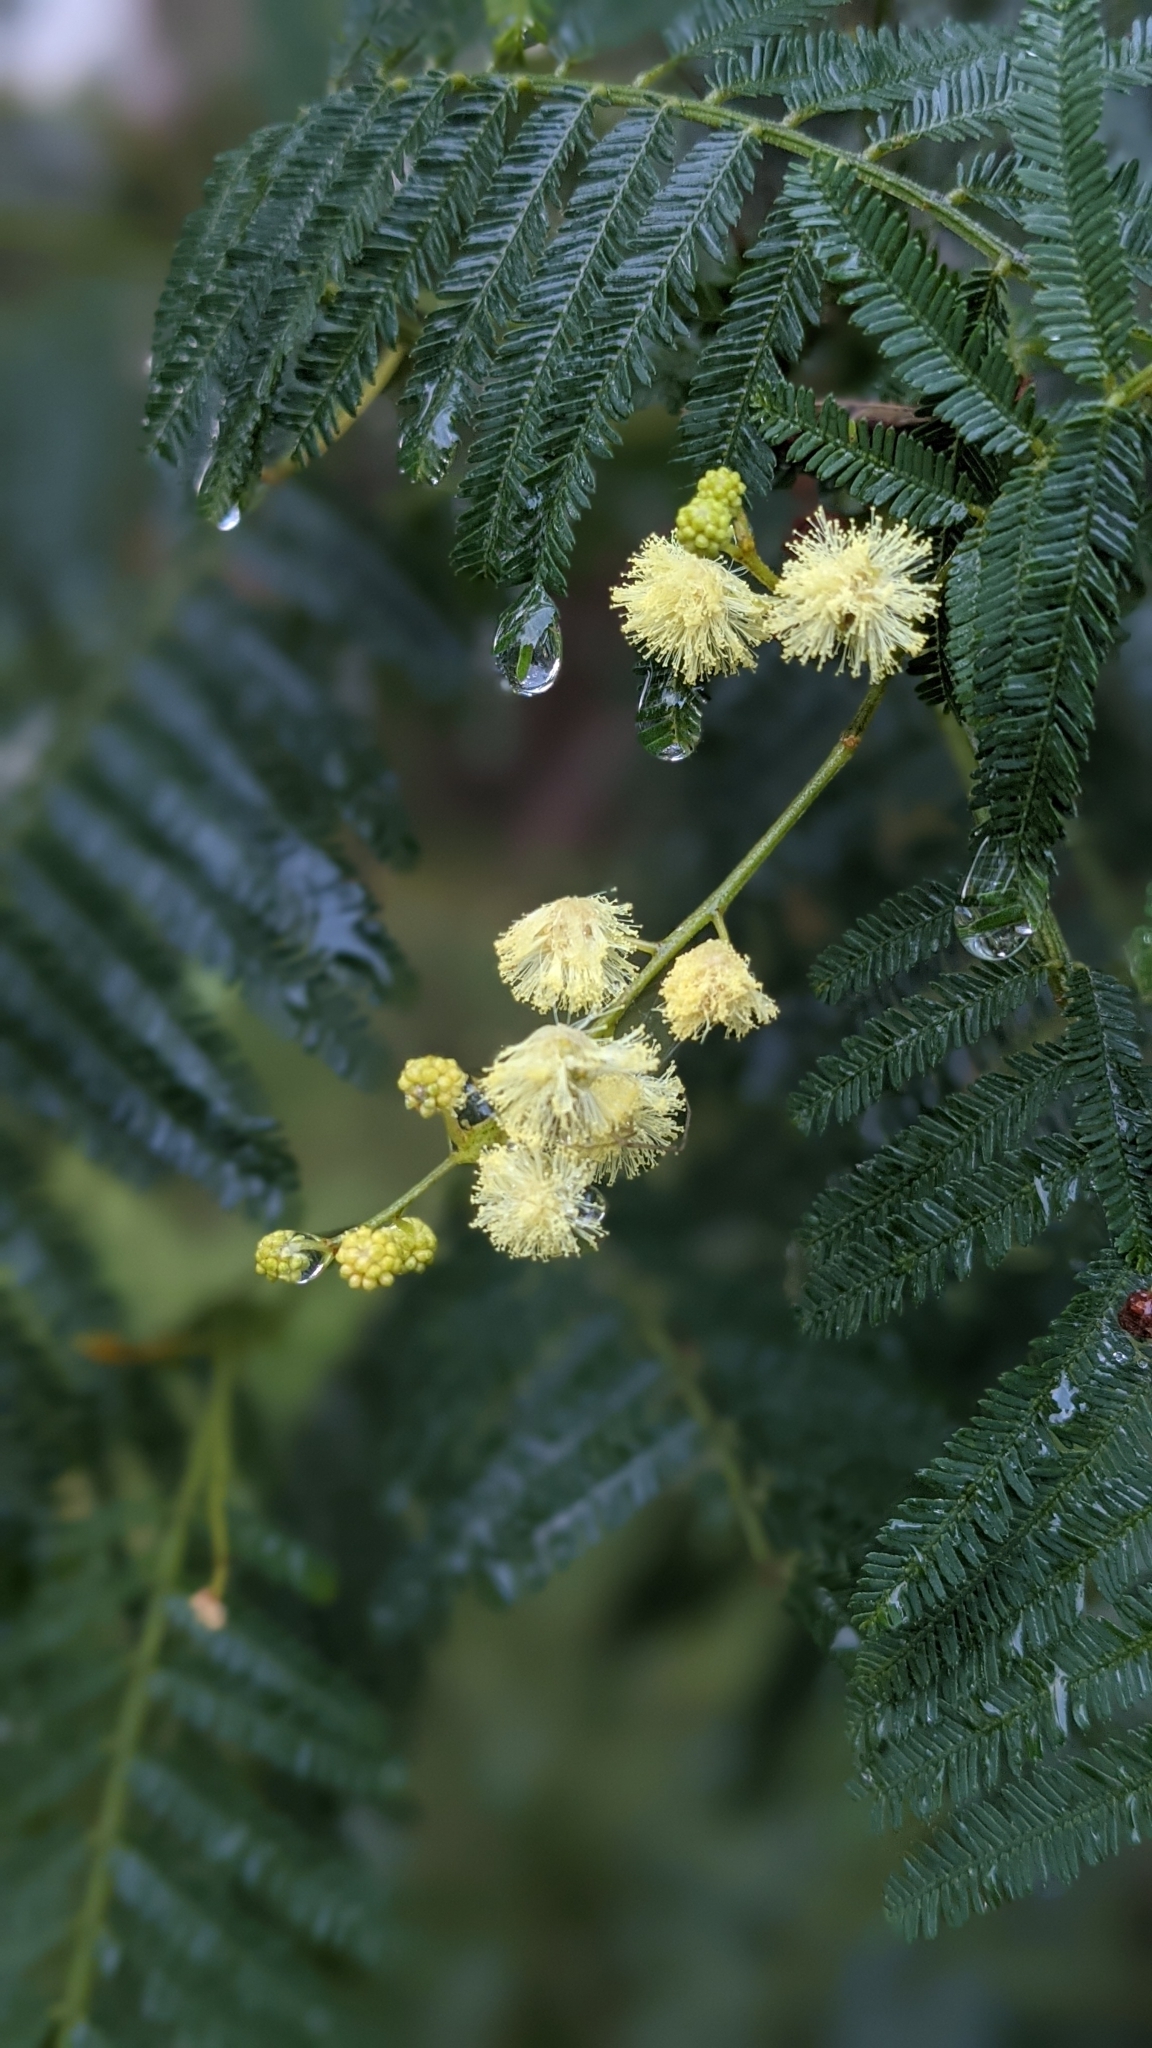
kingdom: Plantae
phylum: Tracheophyta
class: Magnoliopsida
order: Fabales
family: Fabaceae
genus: Acacia
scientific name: Acacia irrorata
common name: Green wattle
